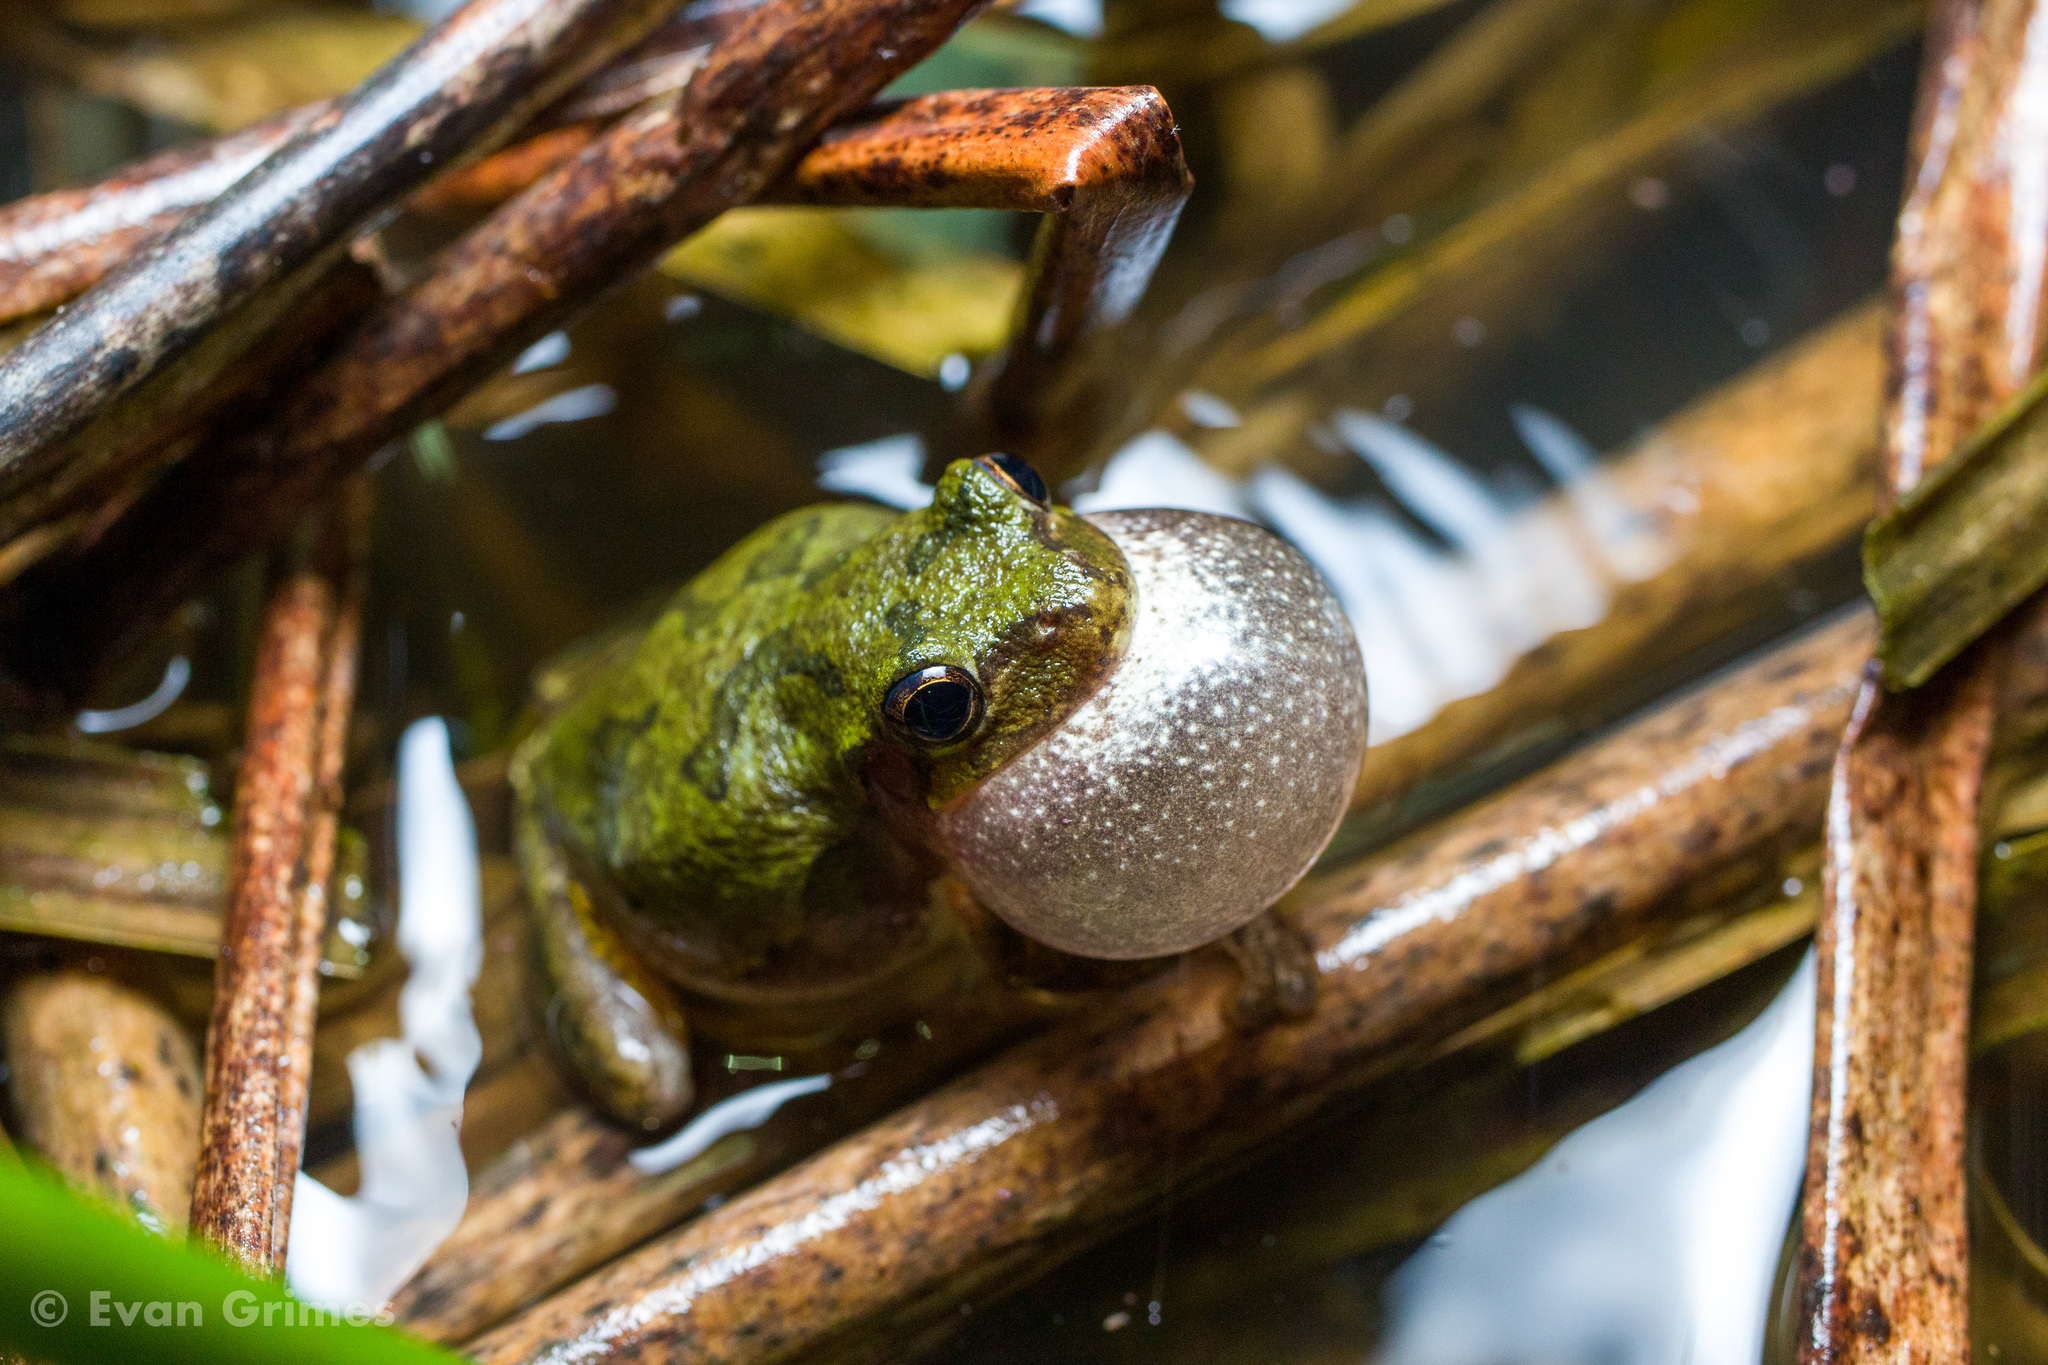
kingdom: Animalia
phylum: Chordata
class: Amphibia
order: Anura
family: Hylidae
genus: Dryophytes
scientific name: Dryophytes chrysoscelis
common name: Cope's gray treefrog
